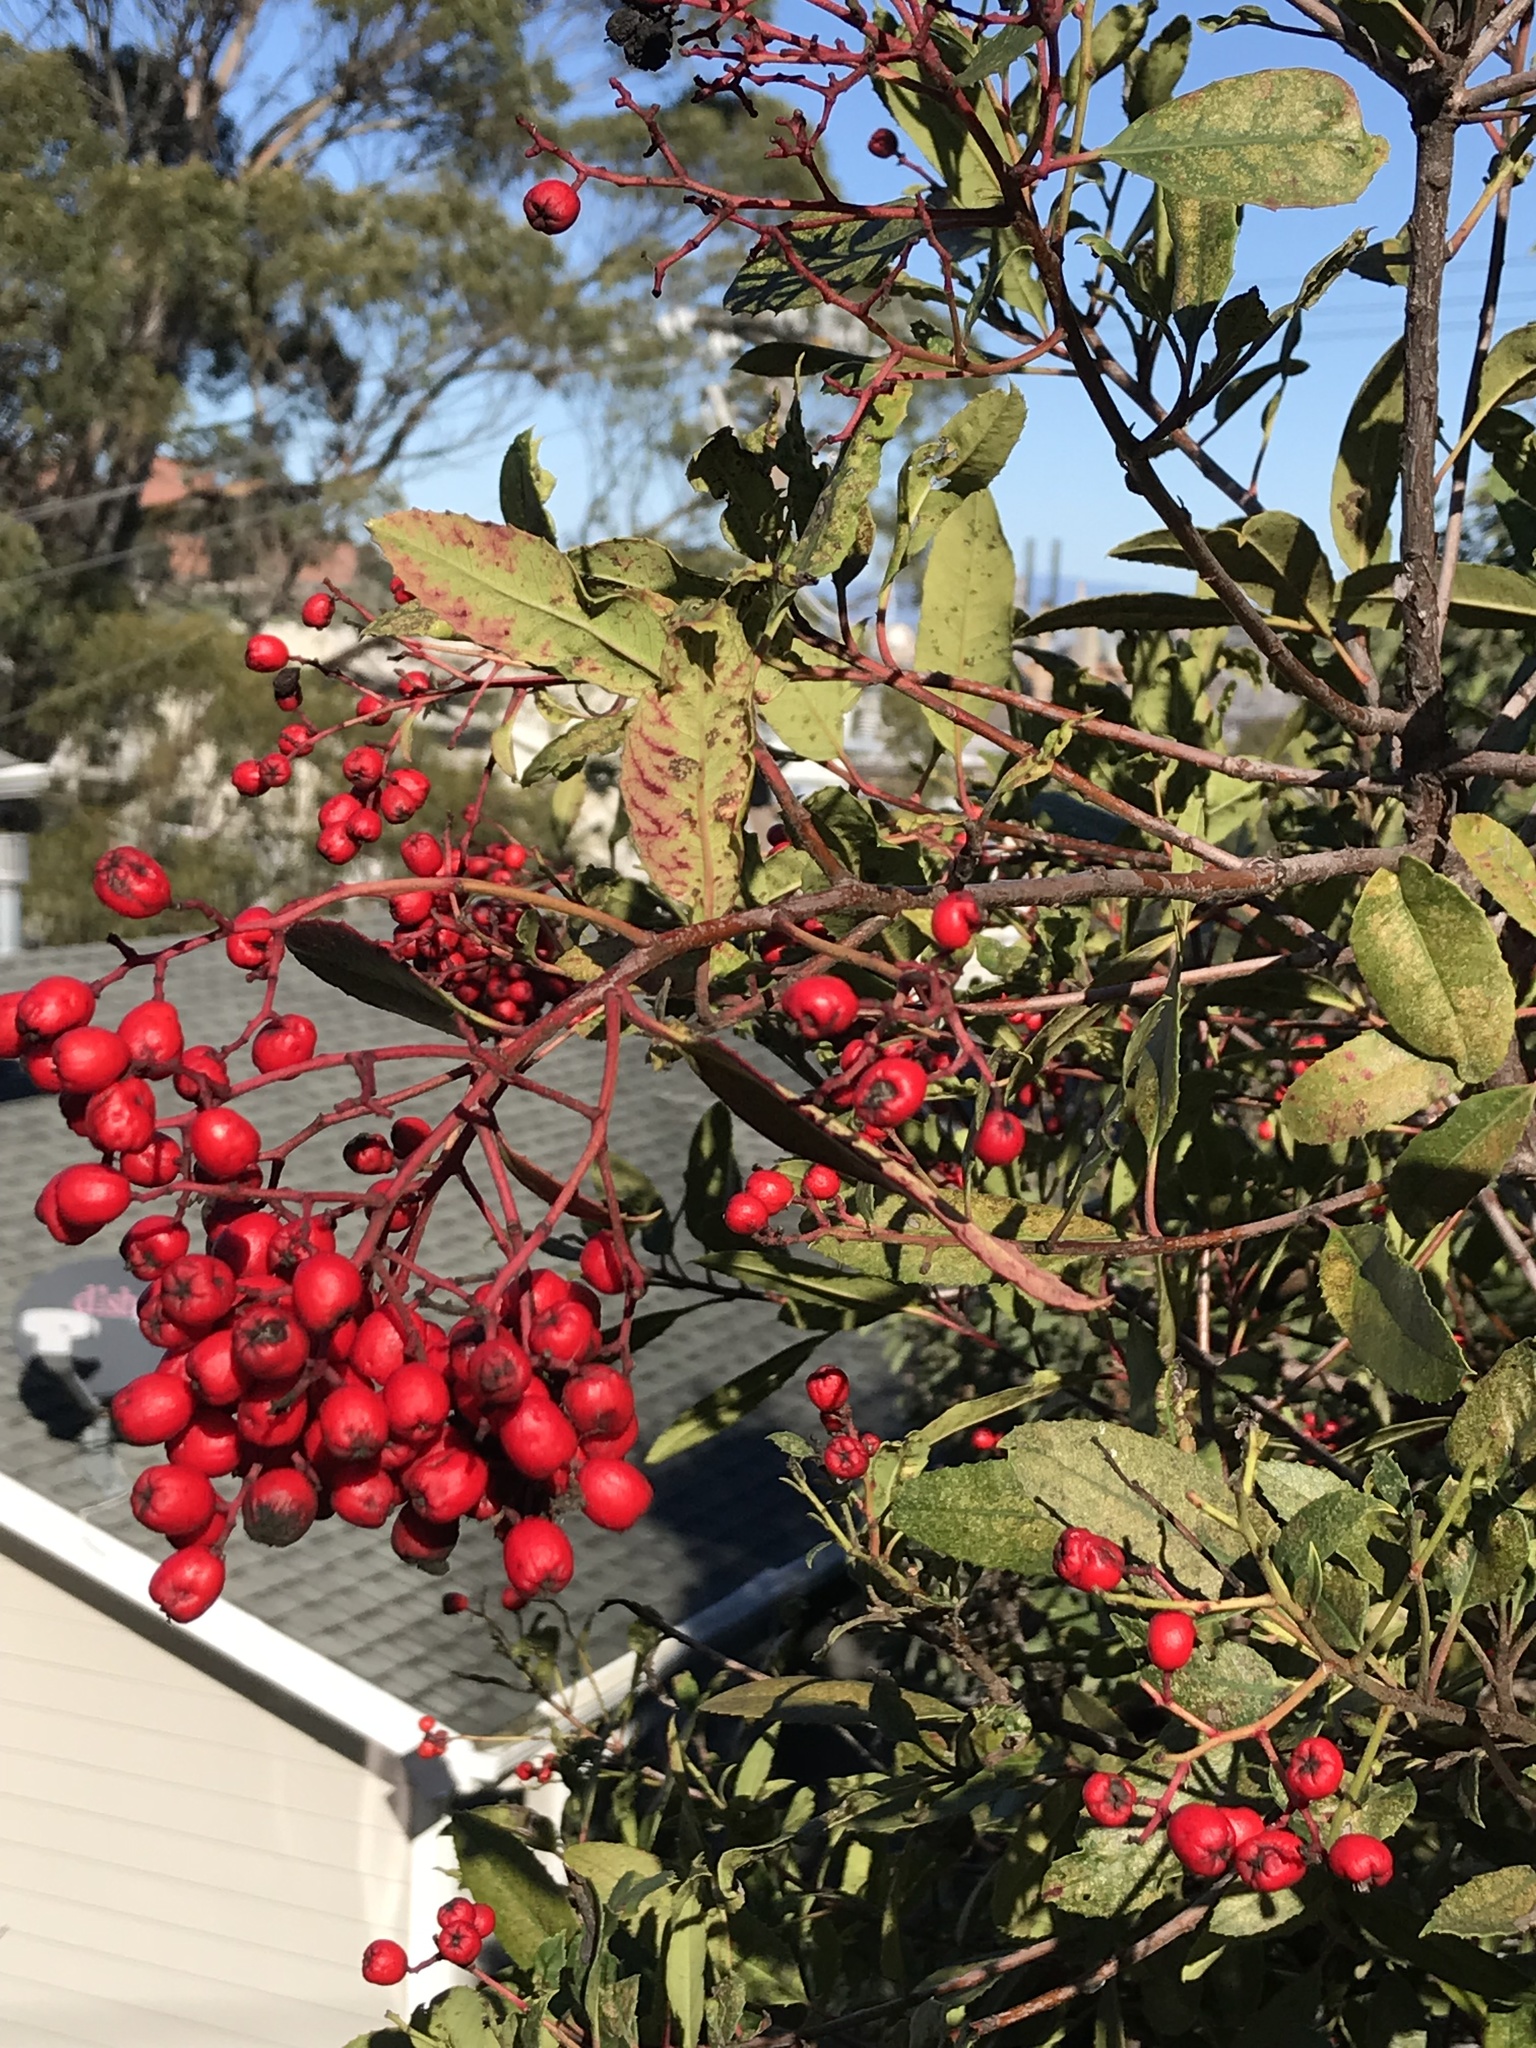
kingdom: Plantae
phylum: Tracheophyta
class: Magnoliopsida
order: Rosales
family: Rosaceae
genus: Heteromeles
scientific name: Heteromeles arbutifolia
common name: California-holly
